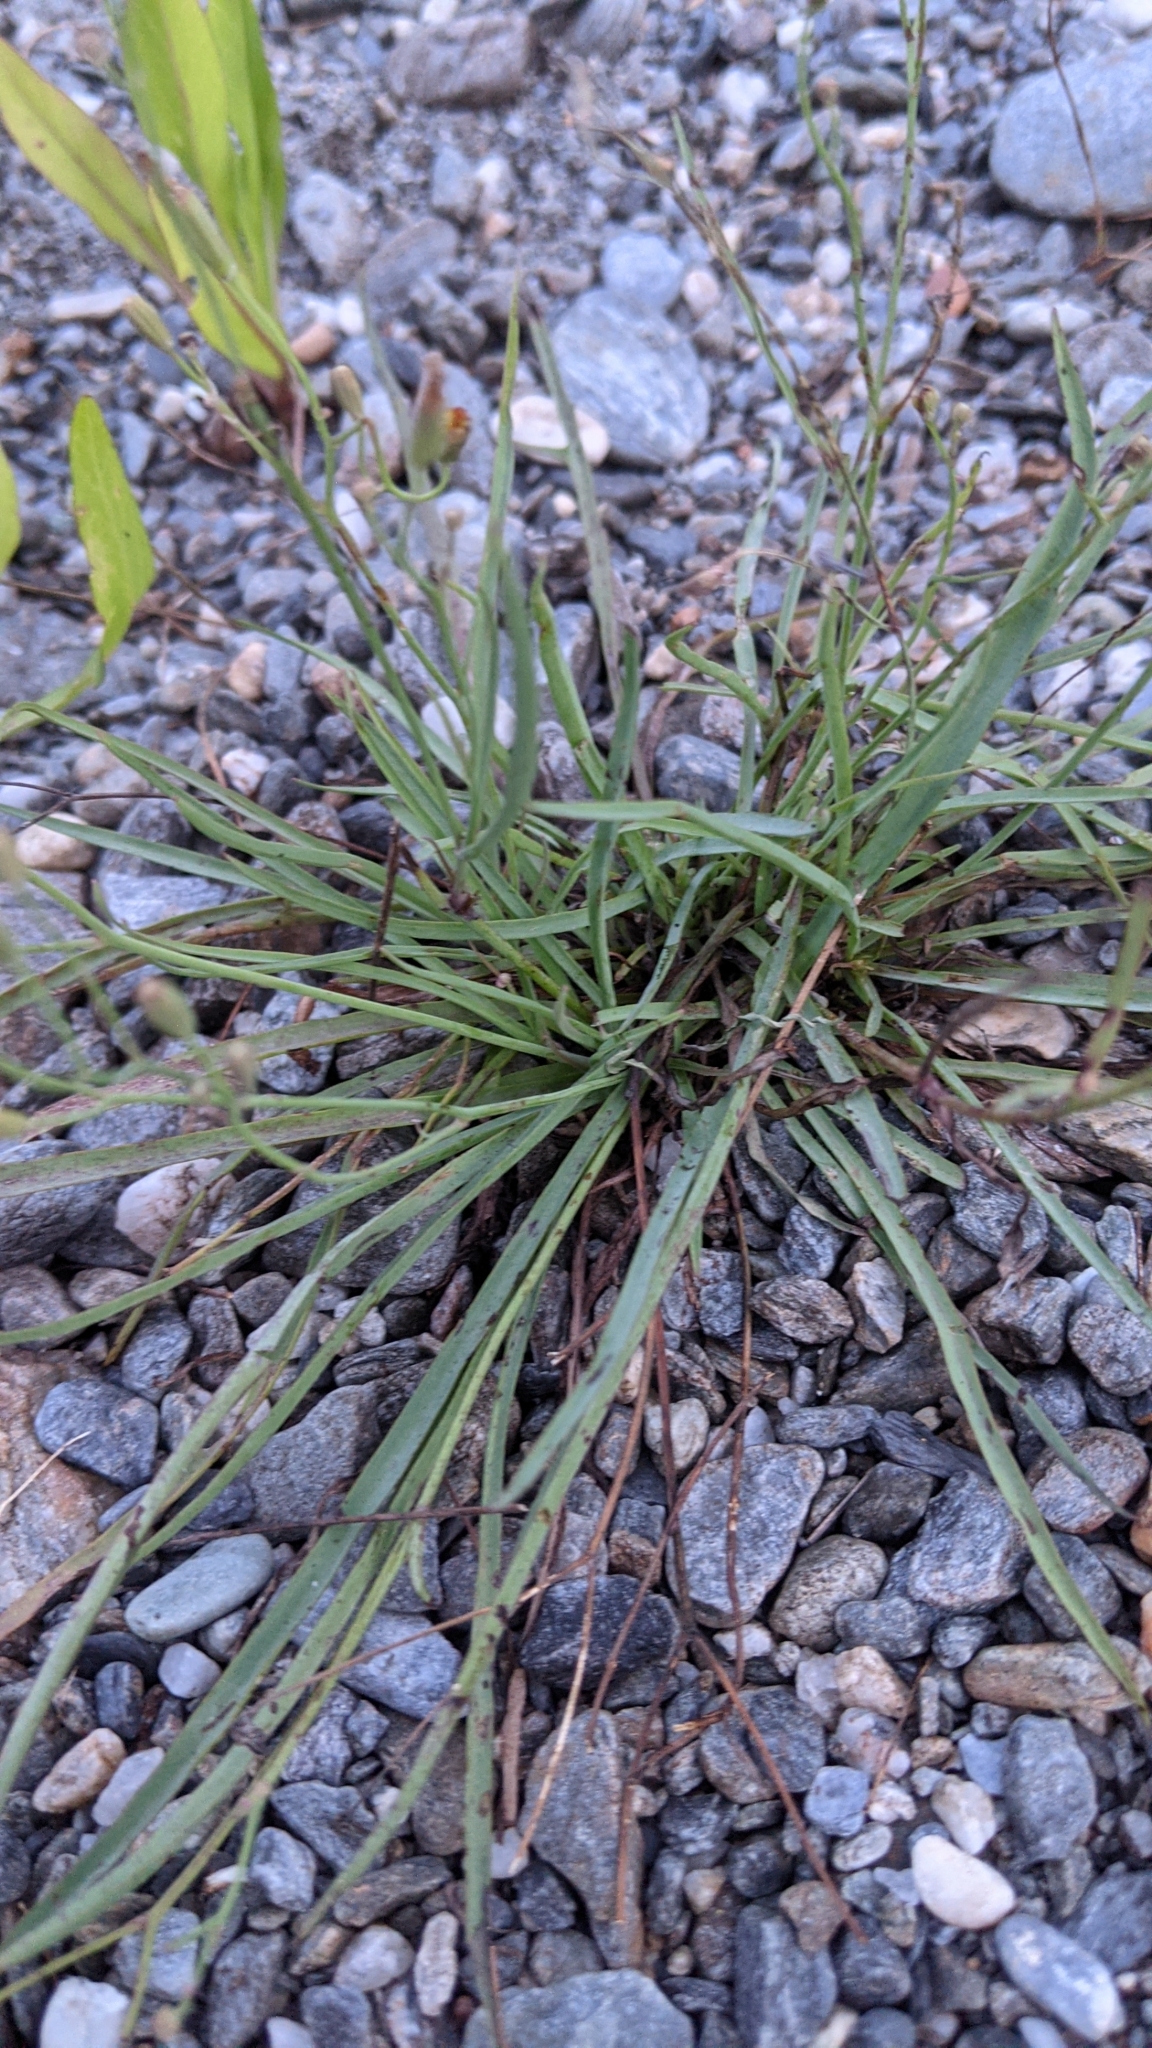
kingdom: Plantae
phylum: Tracheophyta
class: Magnoliopsida
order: Asterales
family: Asteraceae
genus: Ixeris
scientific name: Ixeris tamagawaensis
